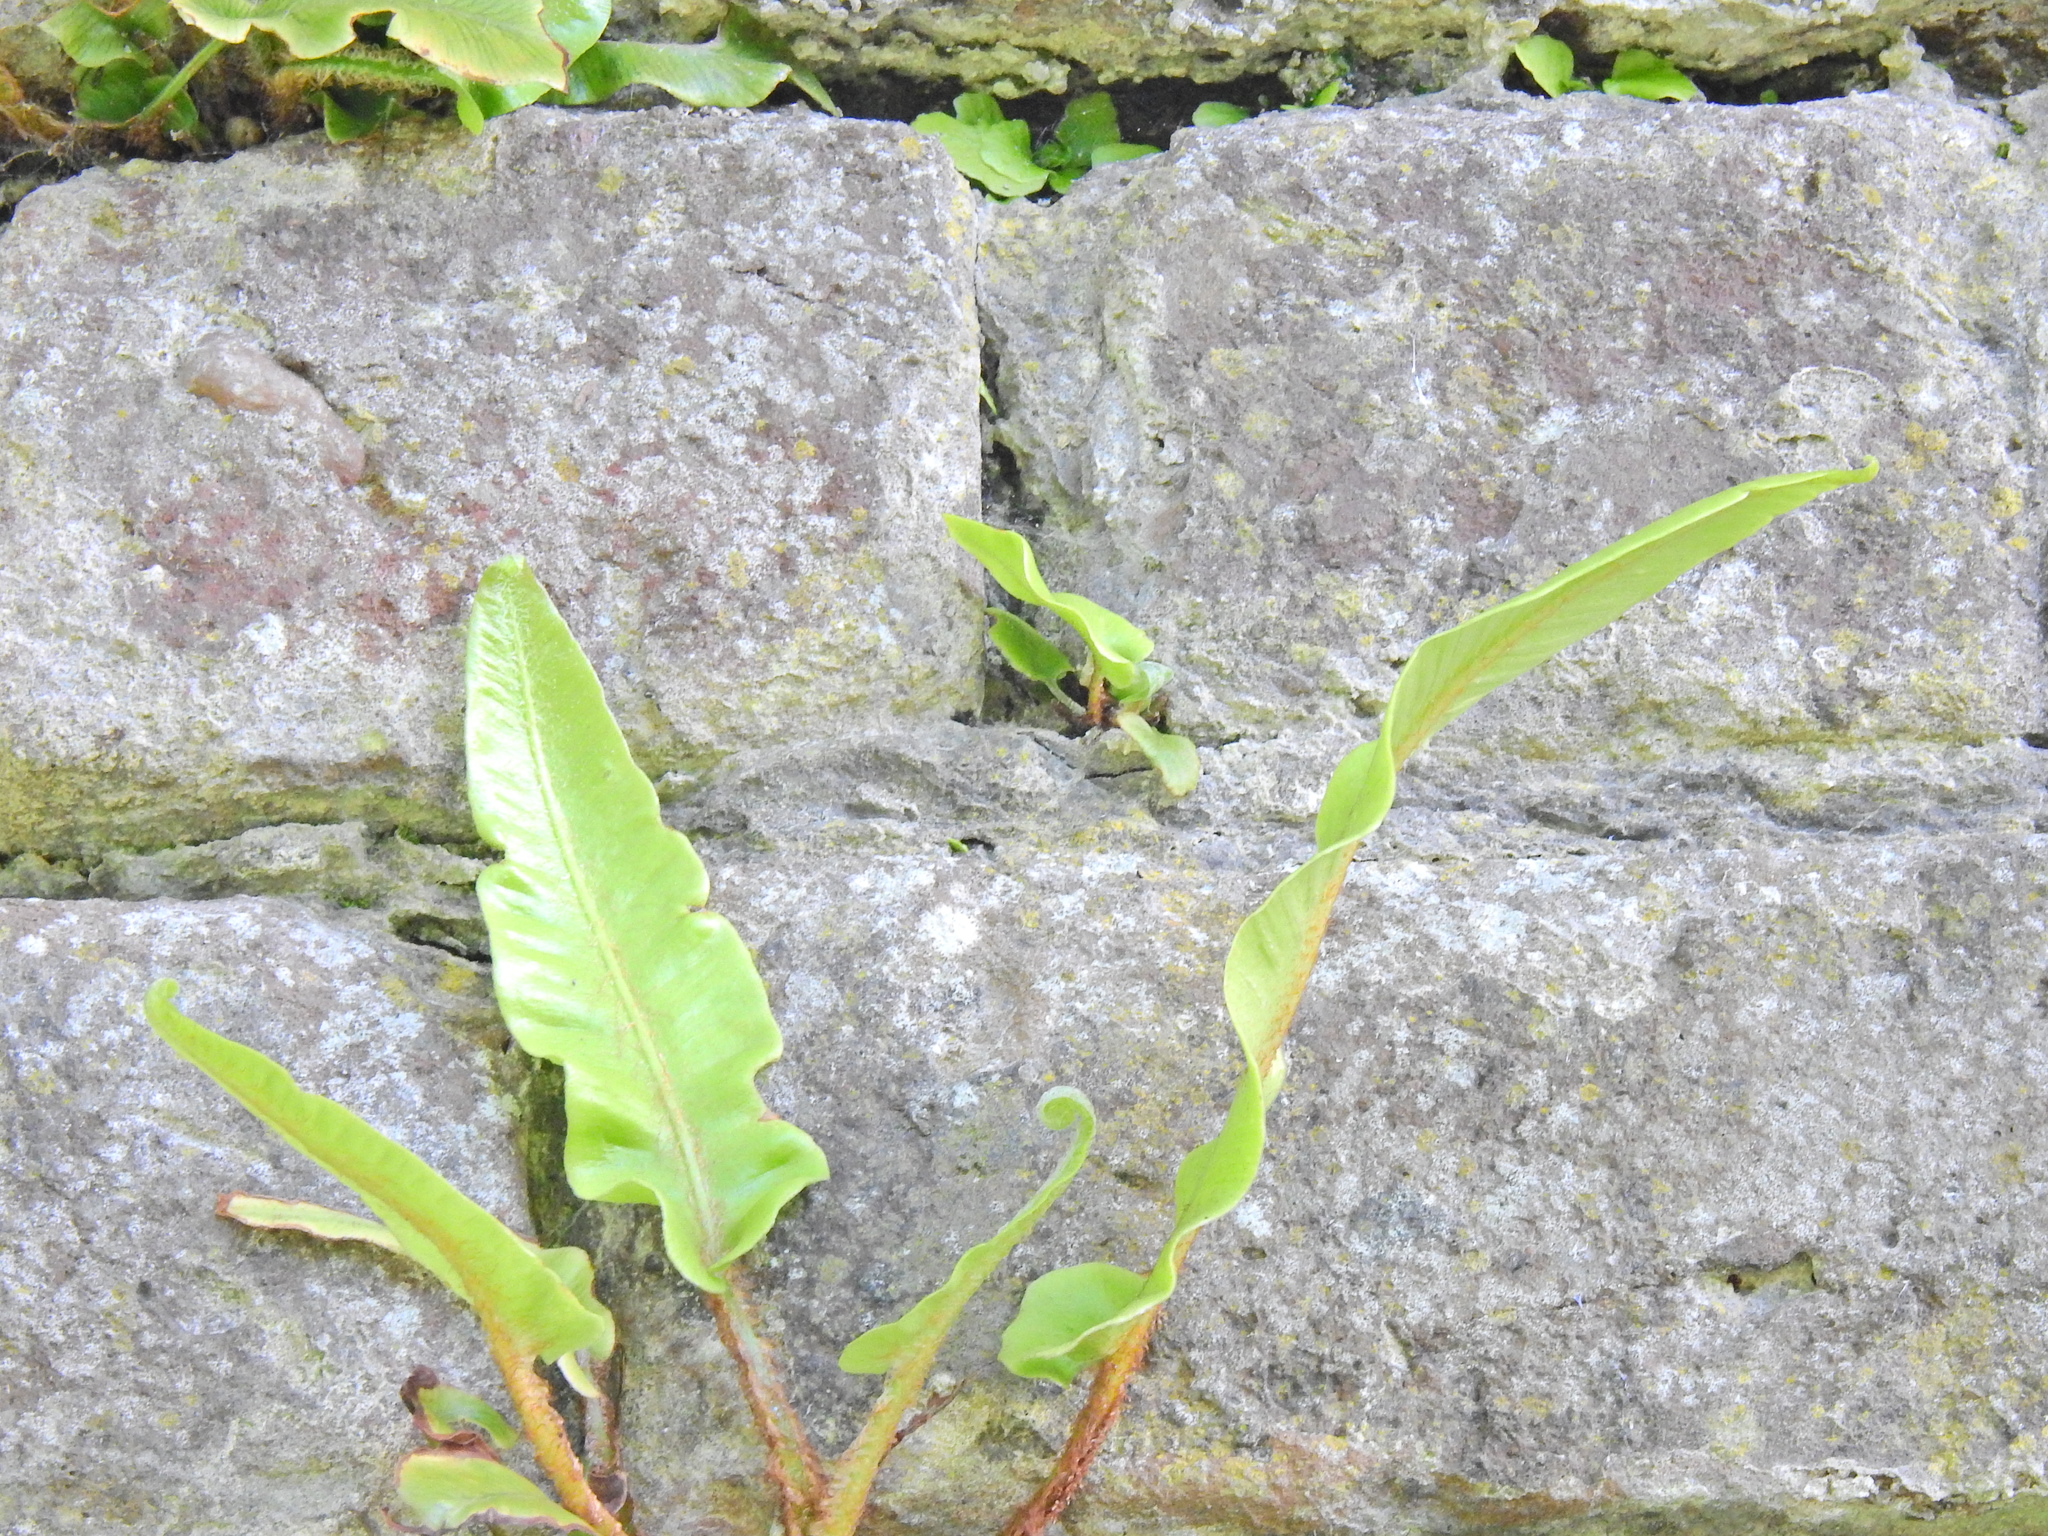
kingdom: Plantae
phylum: Tracheophyta
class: Polypodiopsida
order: Polypodiales
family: Aspleniaceae
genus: Asplenium
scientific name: Asplenium scolopendrium
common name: Hart's-tongue fern
